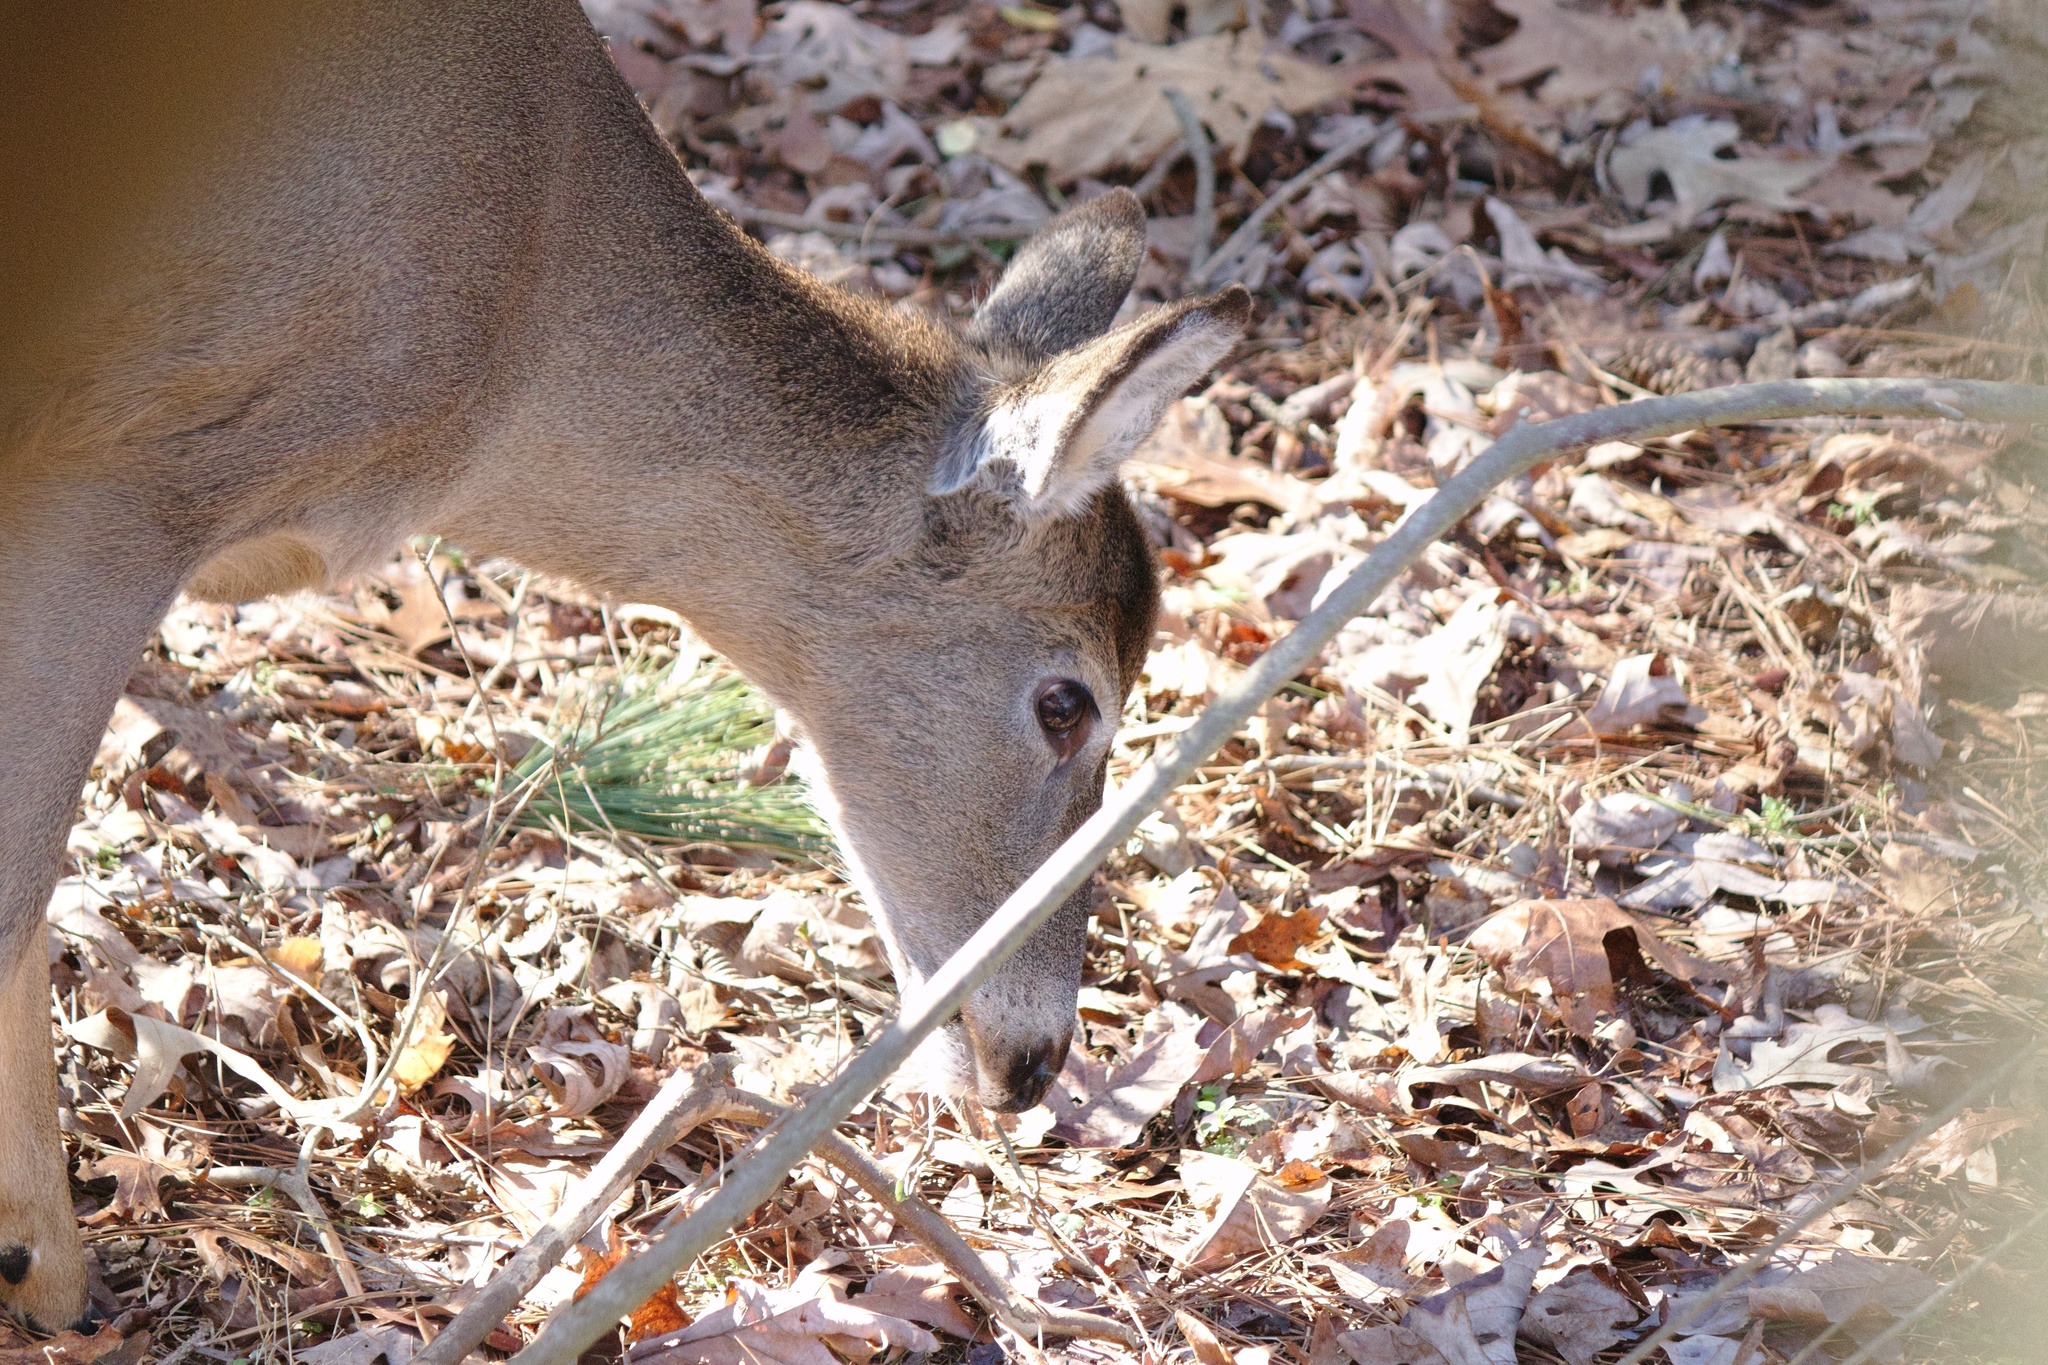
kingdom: Animalia
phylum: Chordata
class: Mammalia
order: Artiodactyla
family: Cervidae
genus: Odocoileus
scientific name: Odocoileus virginianus
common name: White-tailed deer
